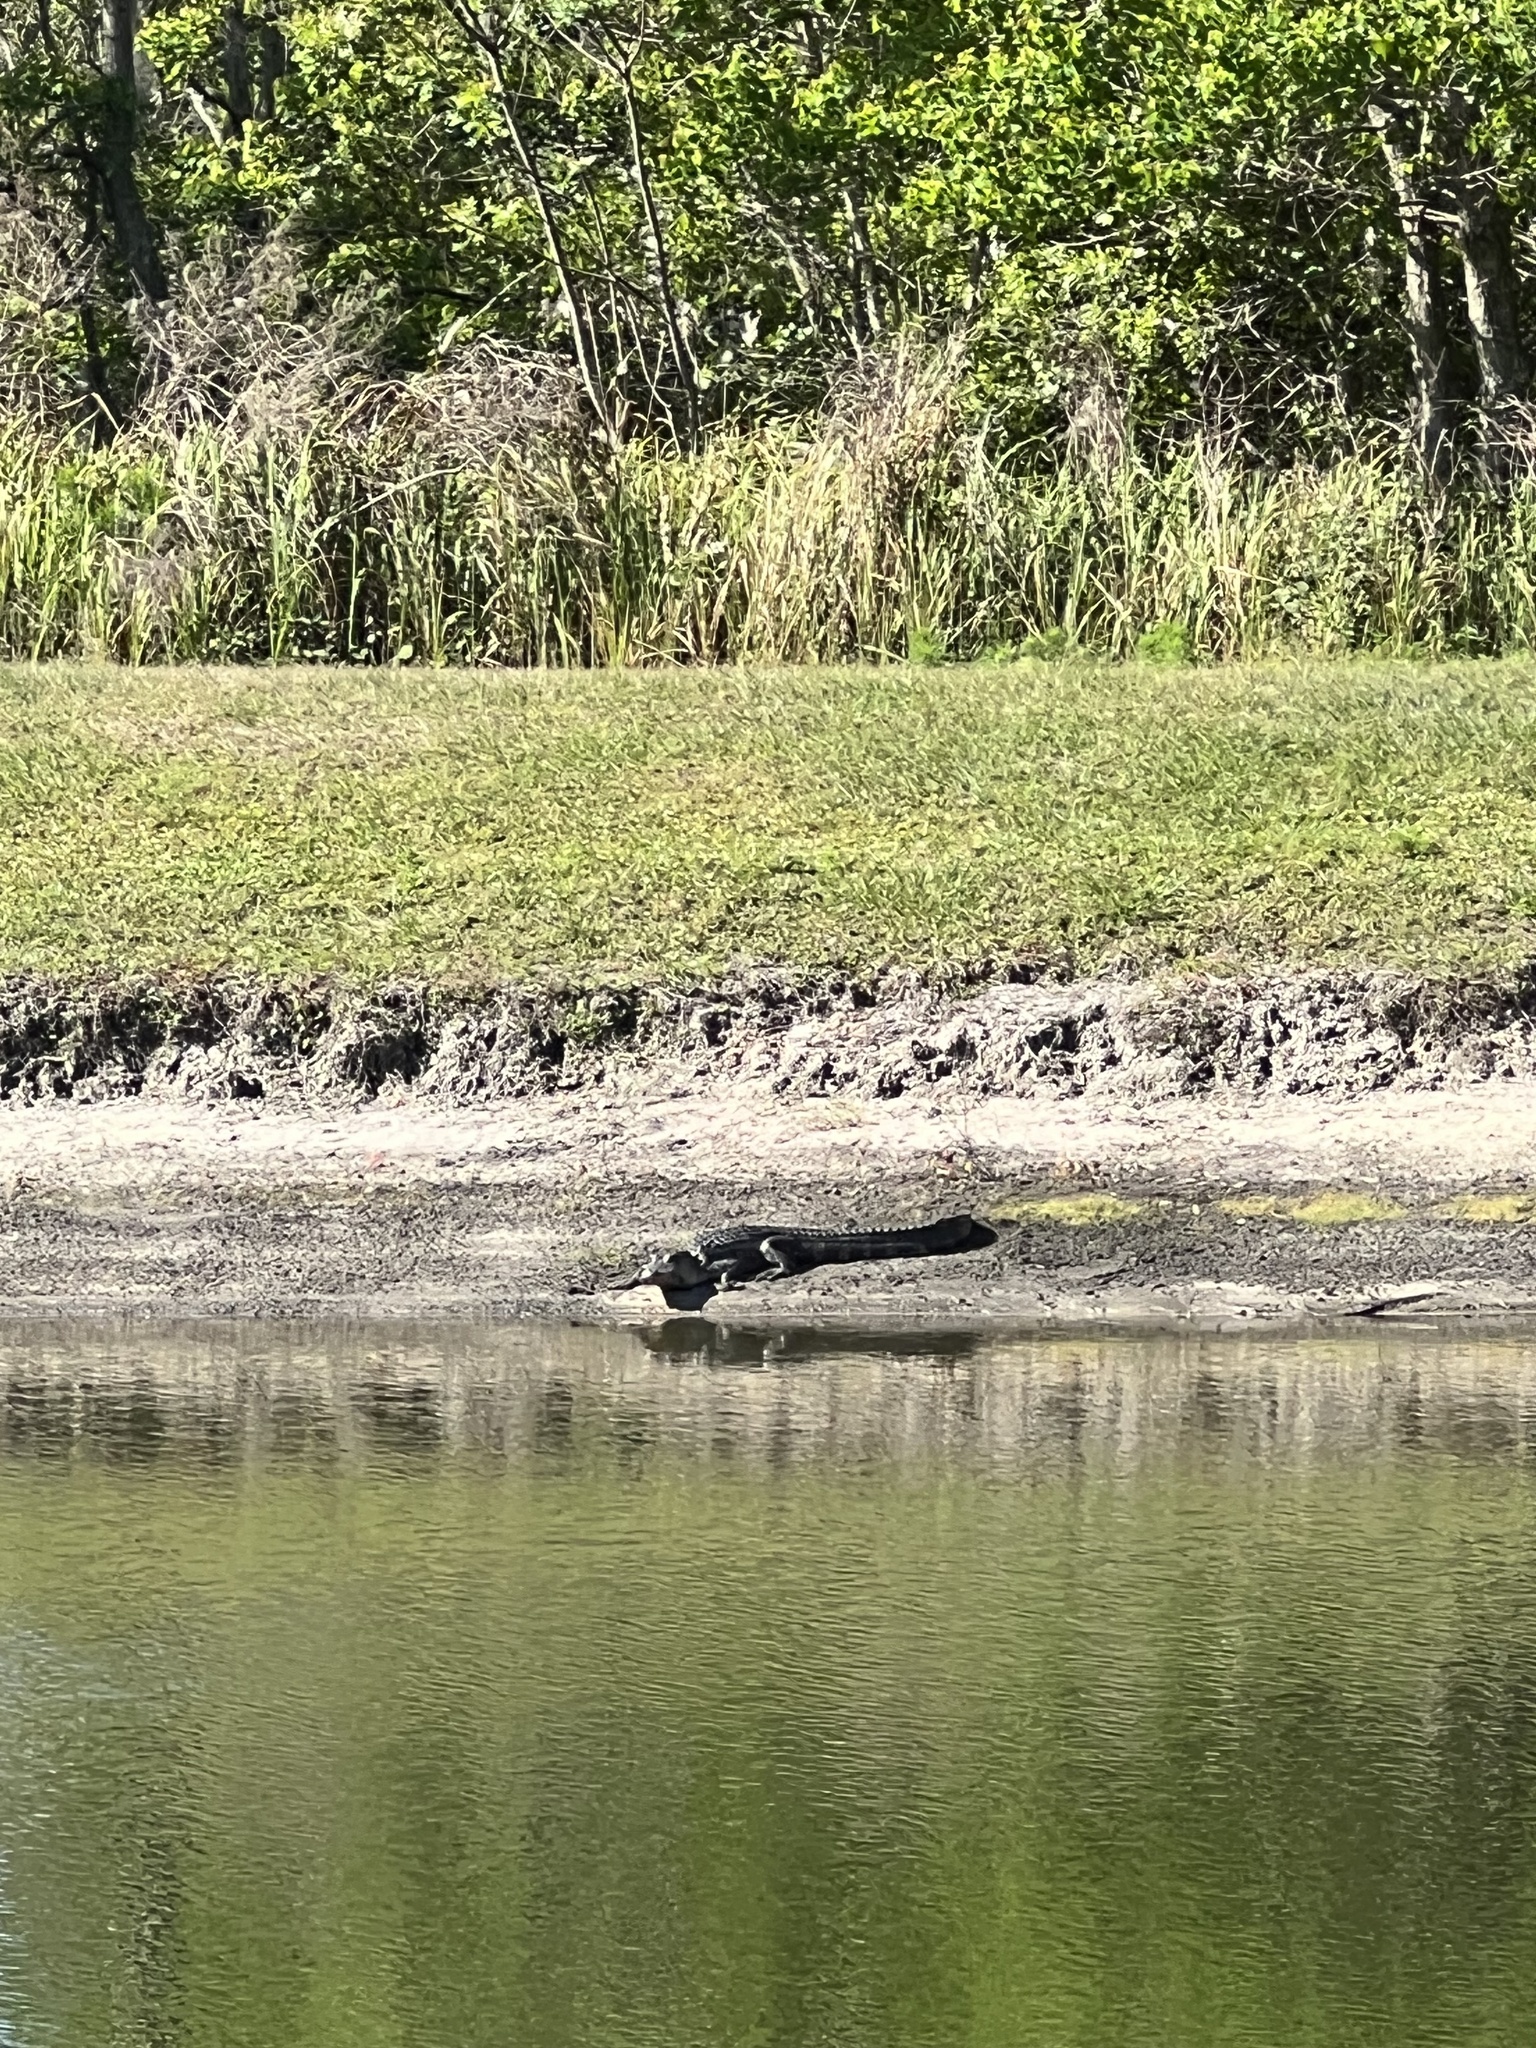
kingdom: Animalia
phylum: Chordata
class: Crocodylia
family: Alligatoridae
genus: Alligator
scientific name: Alligator mississippiensis
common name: American alligator
